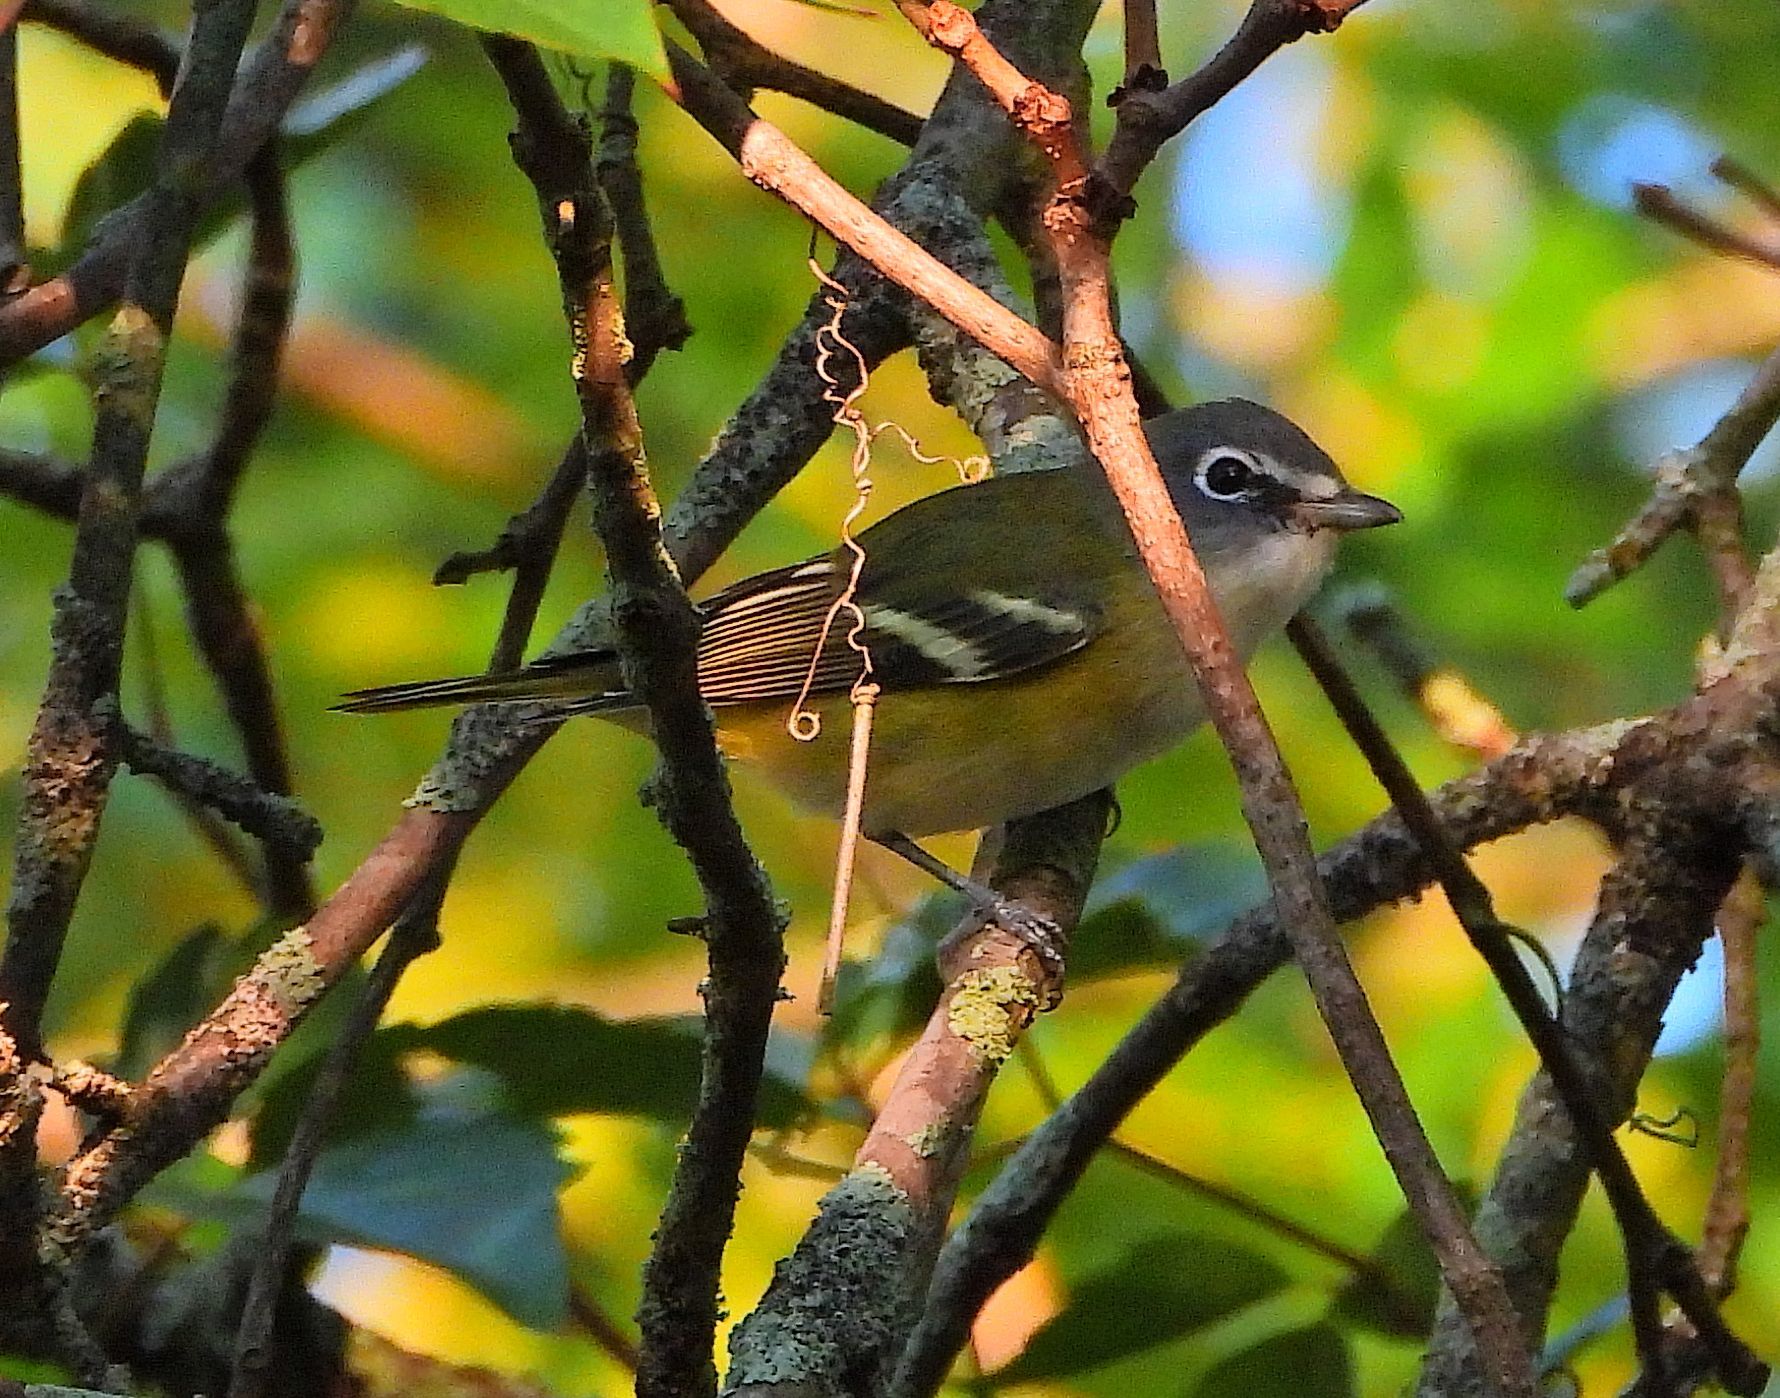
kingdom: Animalia
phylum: Chordata
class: Aves
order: Passeriformes
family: Vireonidae
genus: Vireo
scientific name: Vireo solitarius
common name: Blue-headed vireo
